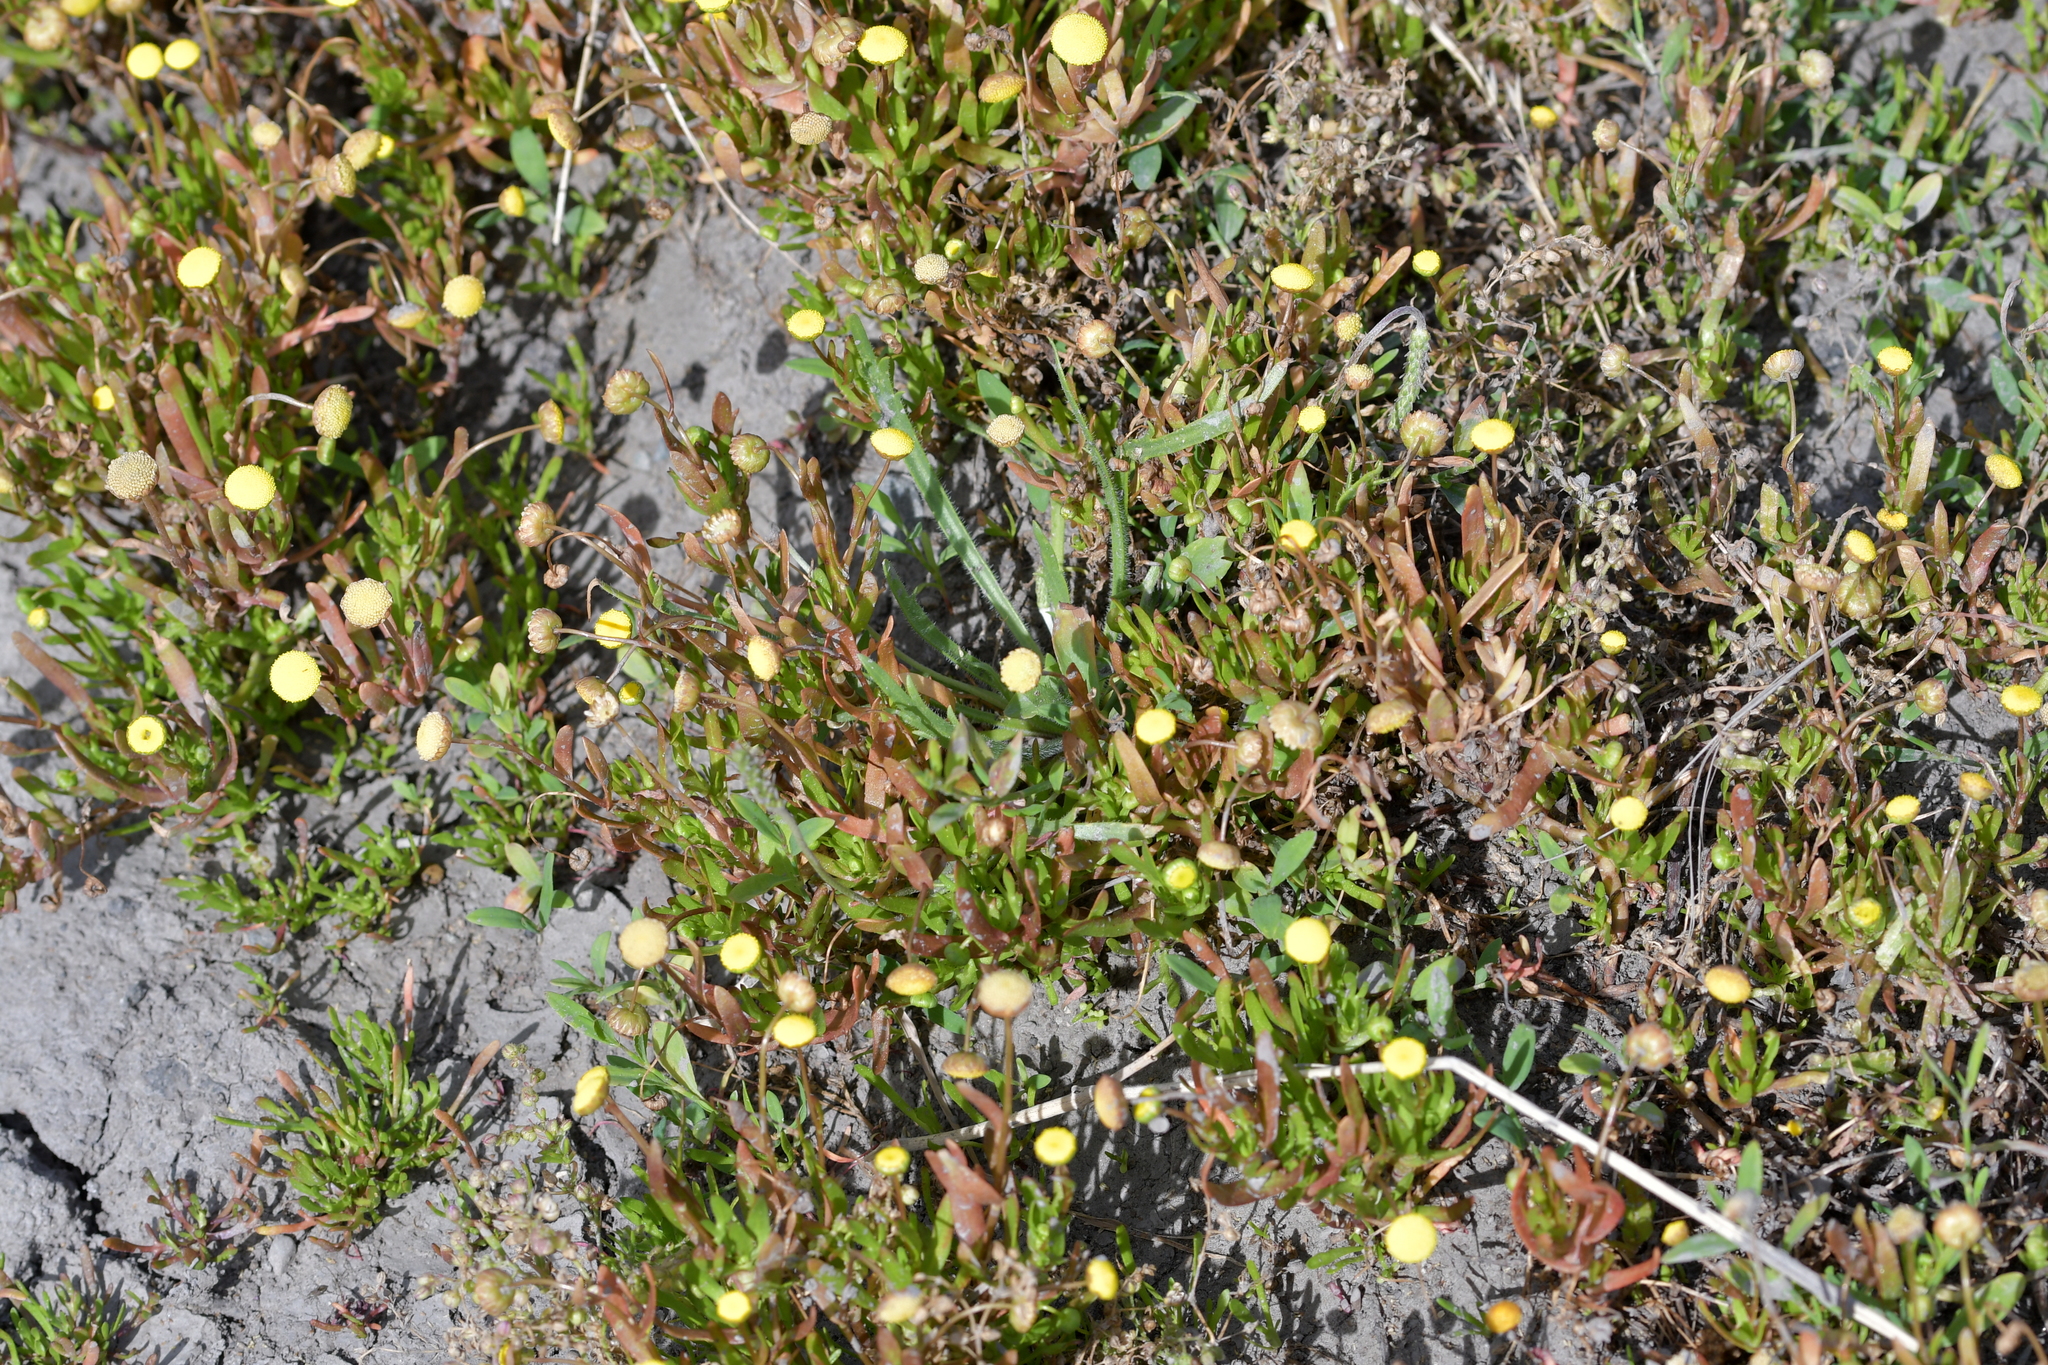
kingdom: Plantae
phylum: Tracheophyta
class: Magnoliopsida
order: Asterales
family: Asteraceae
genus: Cotula
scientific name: Cotula coronopifolia
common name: Buttonweed
